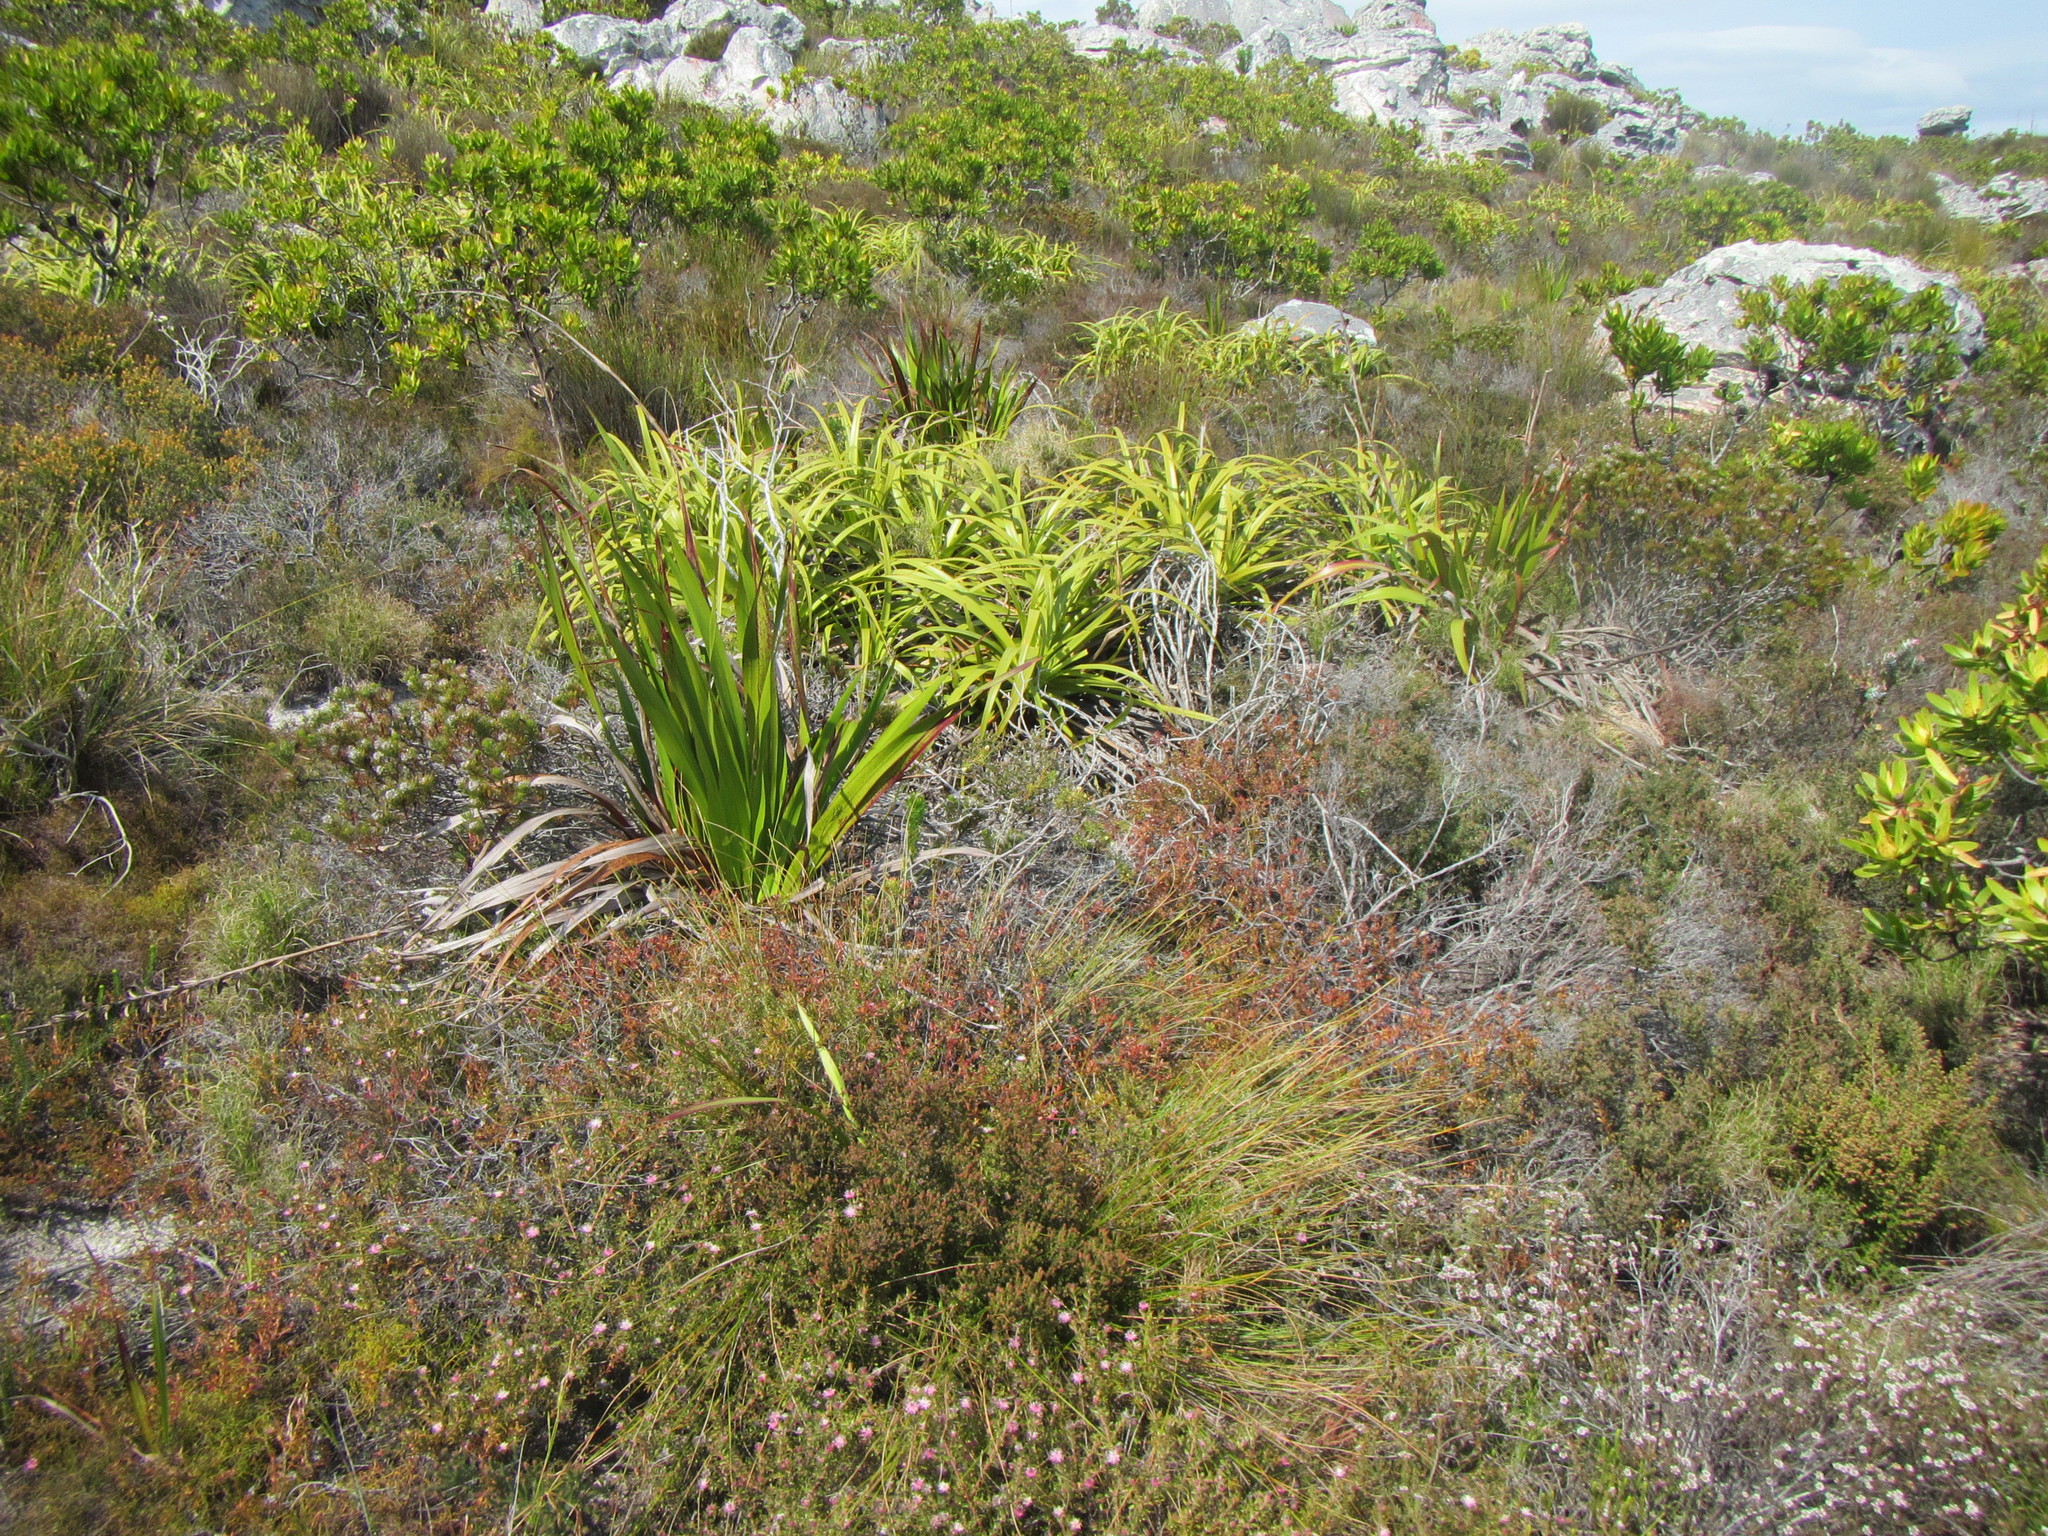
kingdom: Plantae
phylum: Tracheophyta
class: Magnoliopsida
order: Proteales
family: Proteaceae
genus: Diastella
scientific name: Diastella divaricata
